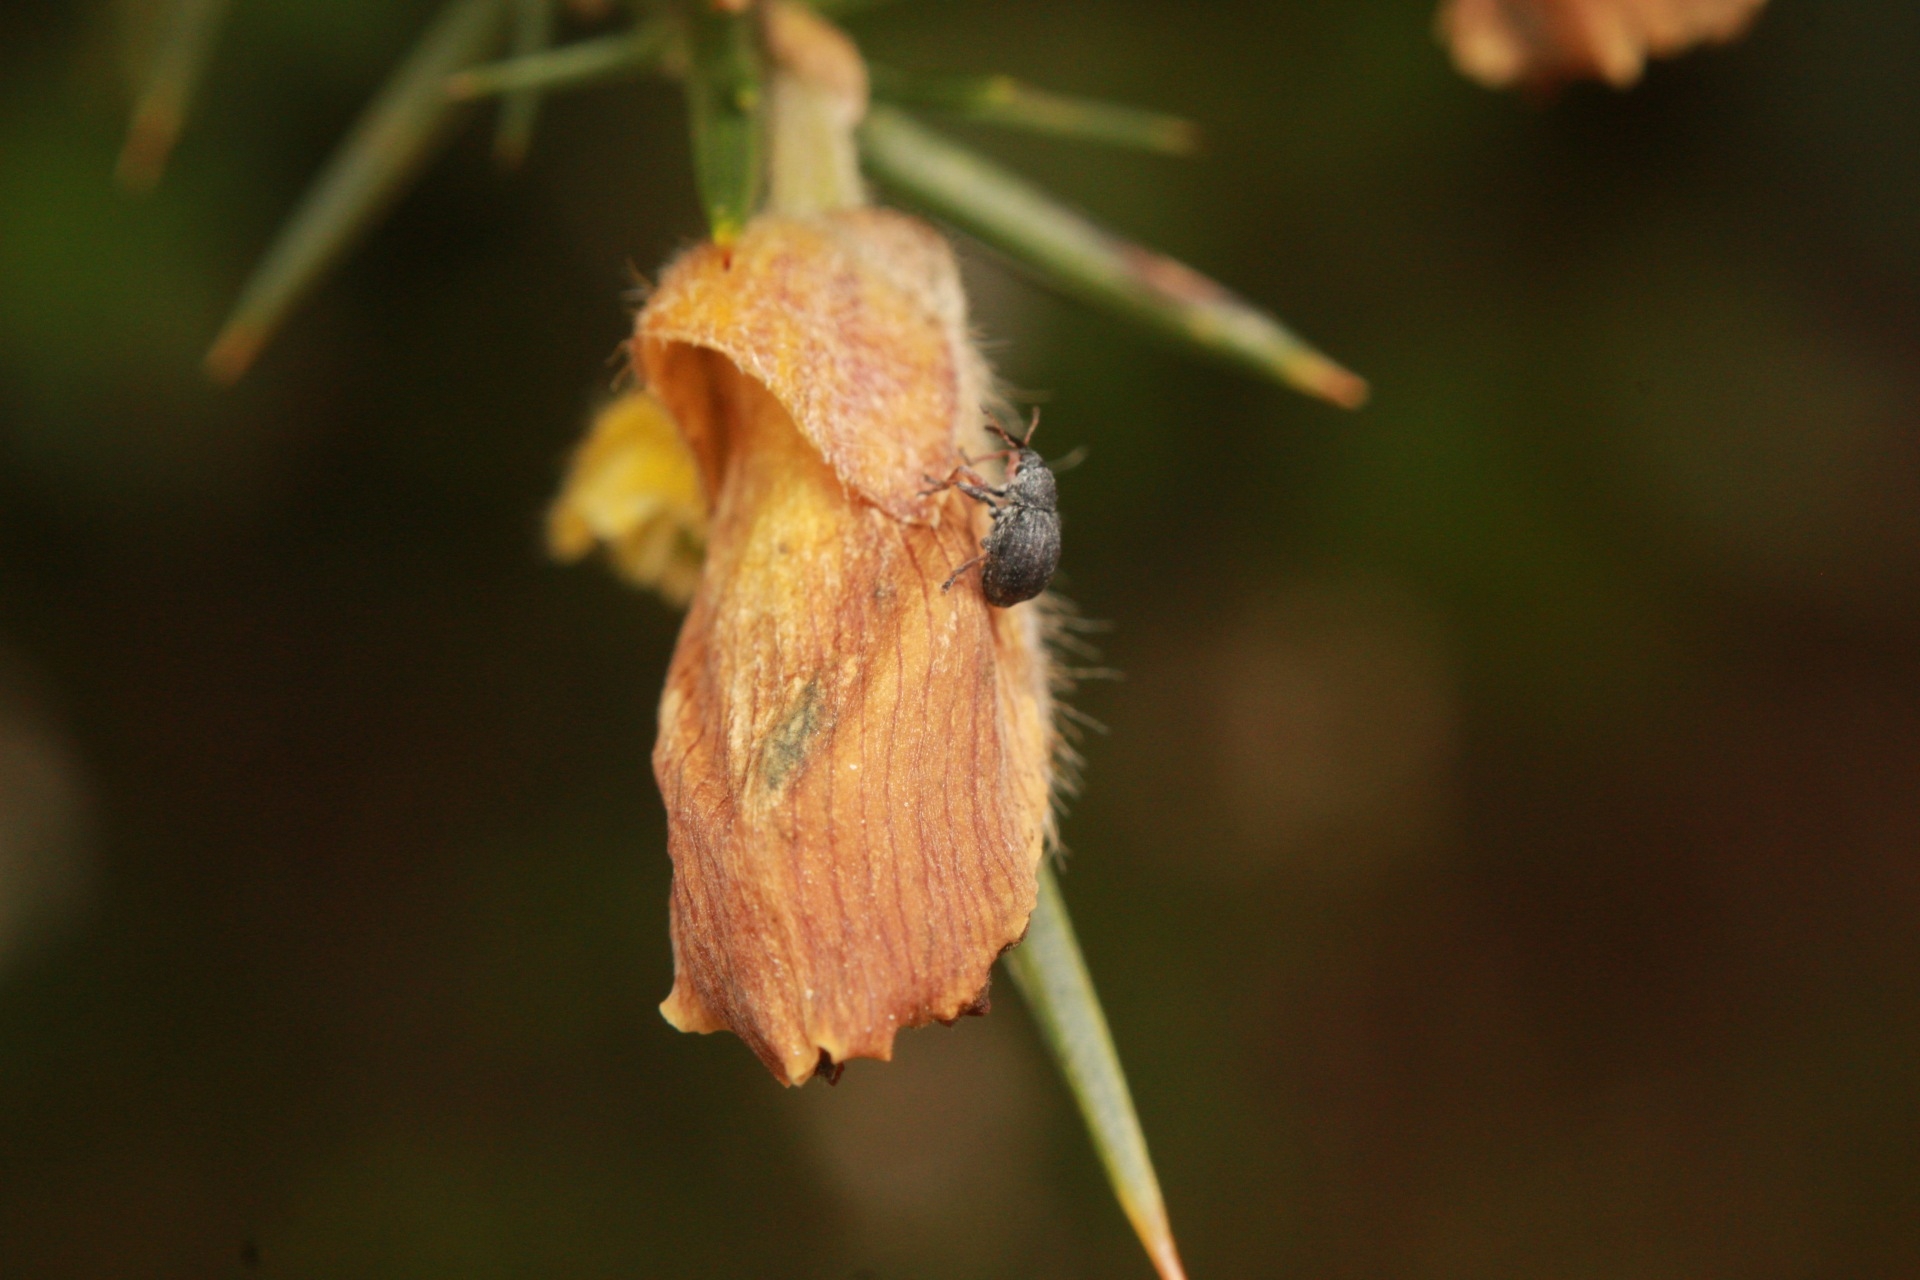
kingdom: Animalia
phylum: Arthropoda
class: Insecta
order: Coleoptera
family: Brentidae
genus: Exapion
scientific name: Exapion ulicis
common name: Gorse seed weevil
